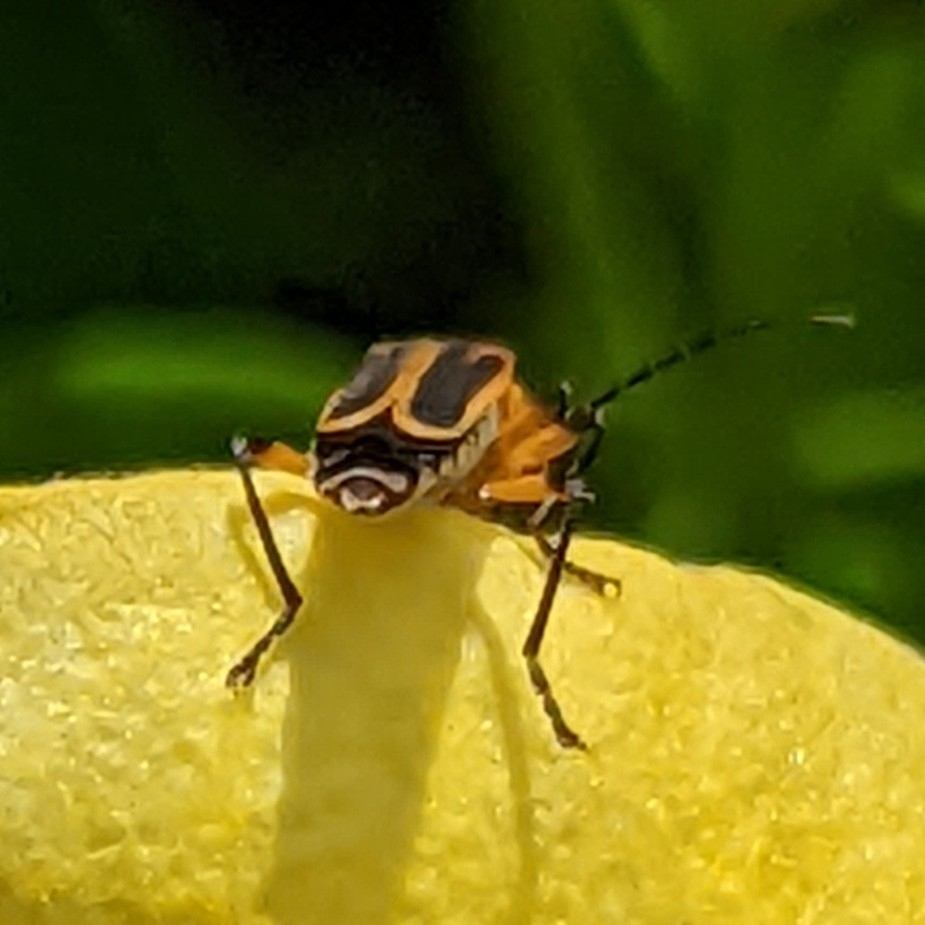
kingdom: Animalia
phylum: Arthropoda
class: Insecta
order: Coleoptera
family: Cantharidae
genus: Chauliognathus
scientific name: Chauliognathus marginatus
